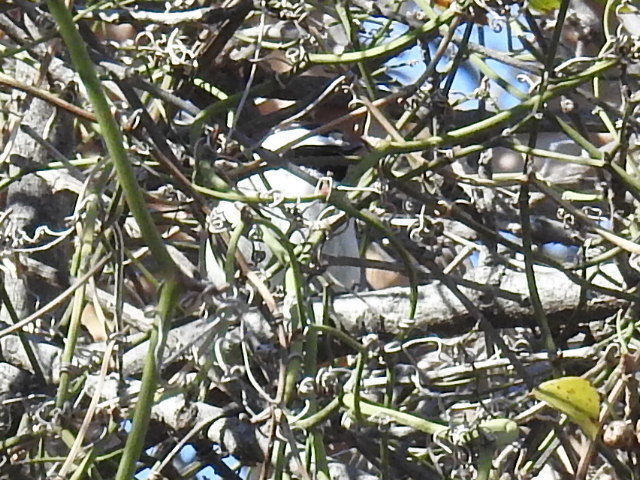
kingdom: Animalia
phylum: Chordata
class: Aves
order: Passeriformes
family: Paridae
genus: Poecile
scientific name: Poecile carolinensis
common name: Carolina chickadee
